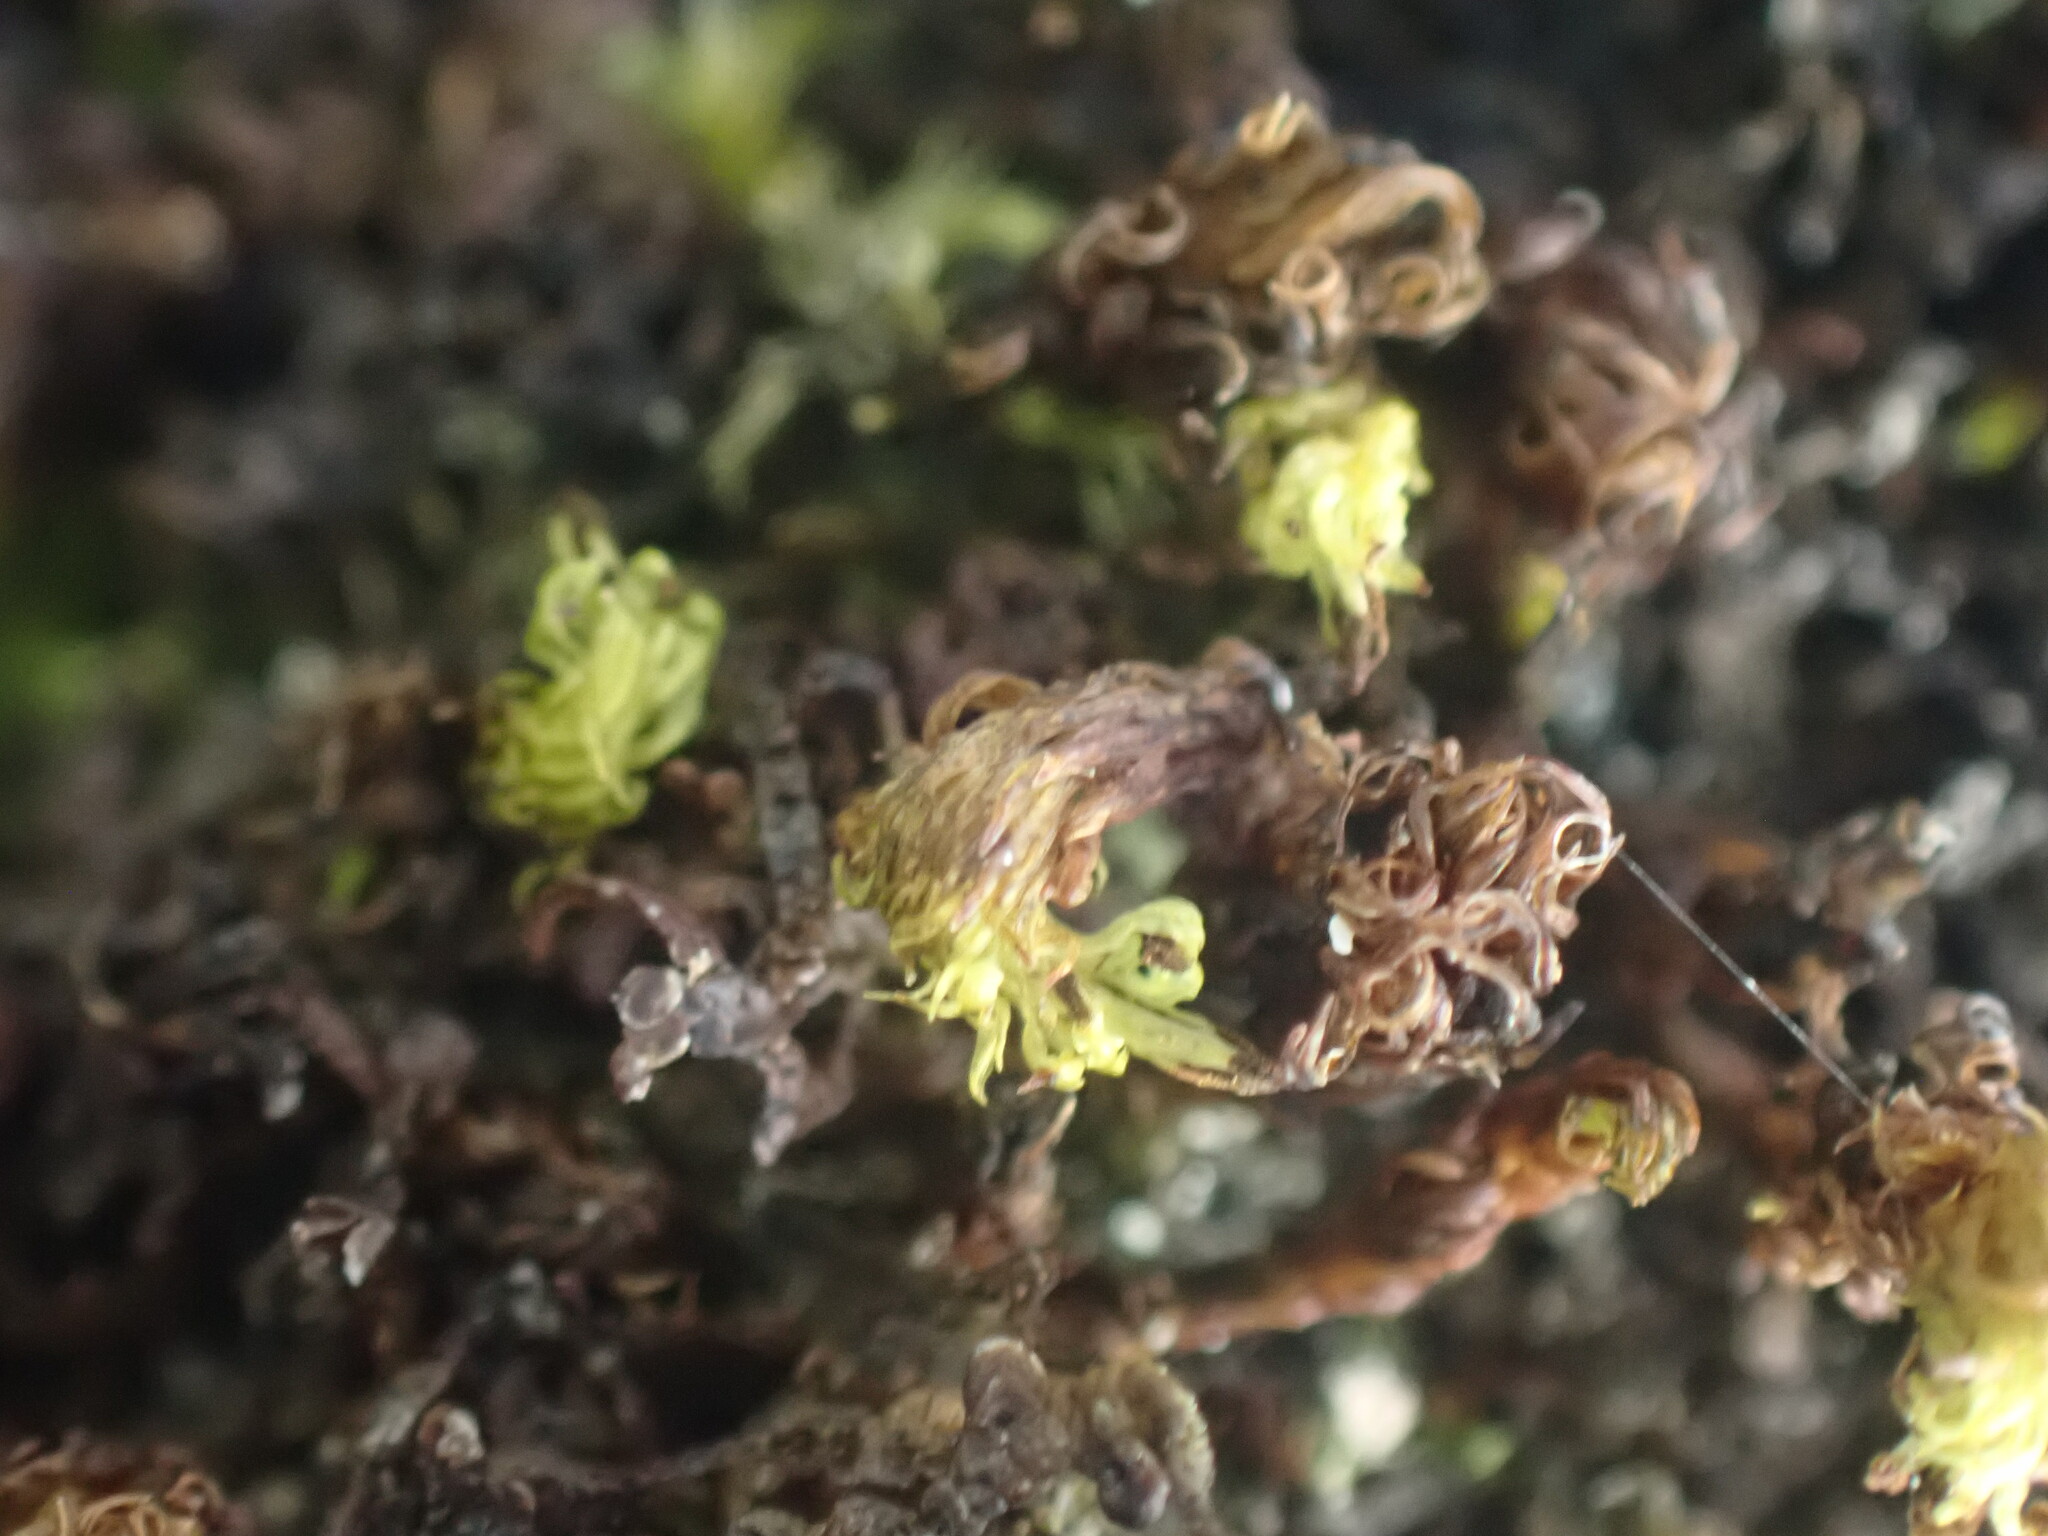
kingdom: Plantae
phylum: Bryophyta
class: Bryopsida
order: Orthotrichales
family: Orthotrichaceae
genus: Plenogemma
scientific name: Plenogemma phyllantha
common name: Frizzled pincushion
